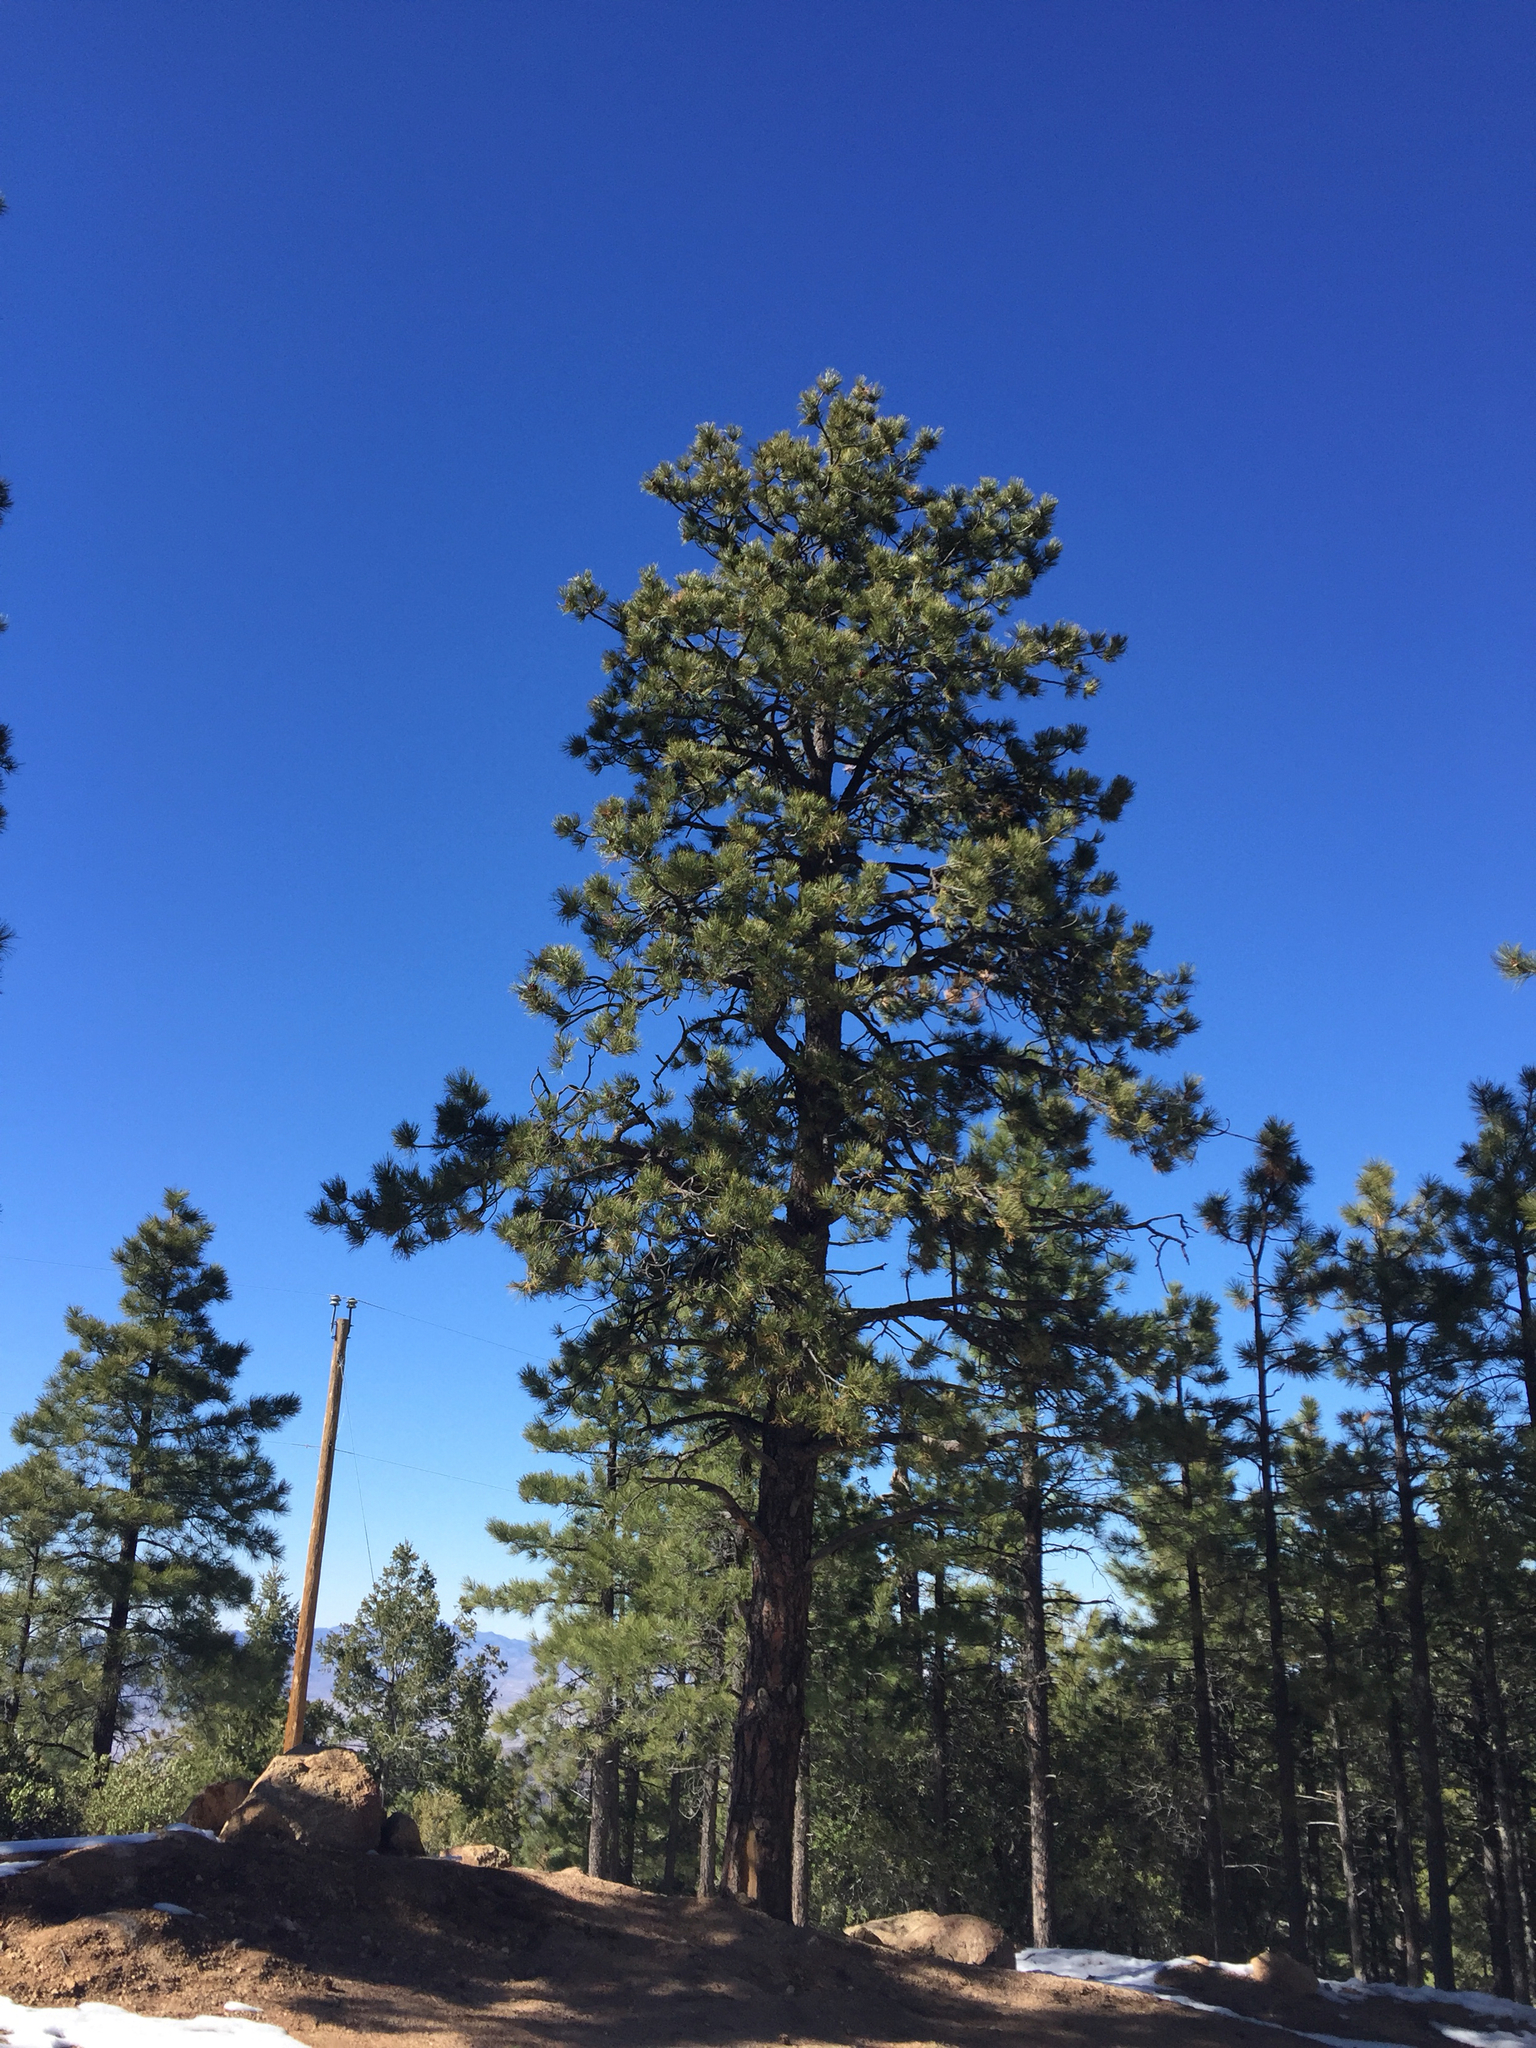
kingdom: Plantae
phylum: Tracheophyta
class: Pinopsida
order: Pinales
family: Pinaceae
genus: Pinus
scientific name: Pinus ponderosa
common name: Western yellow-pine
